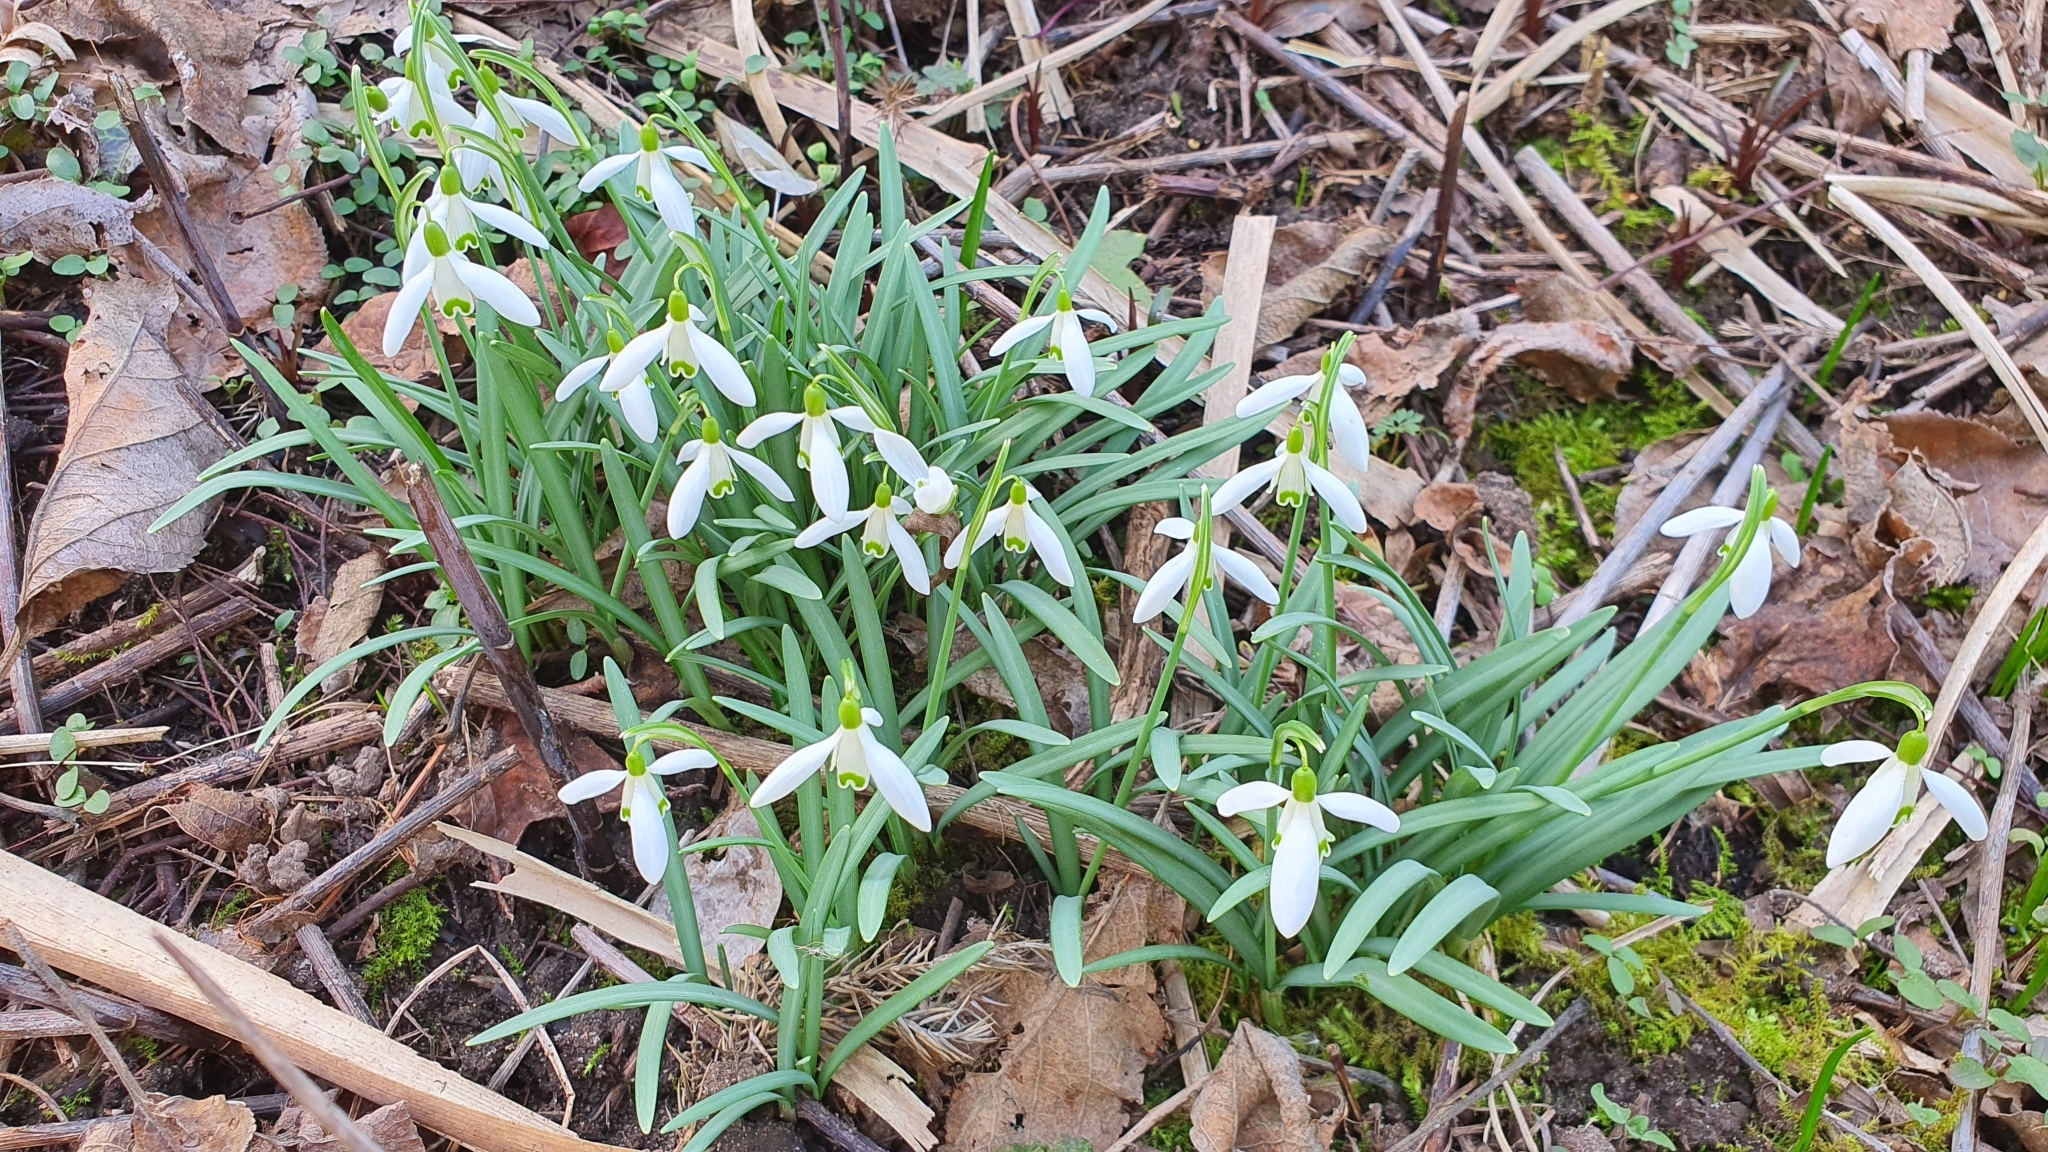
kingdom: Plantae
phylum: Tracheophyta
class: Liliopsida
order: Asparagales
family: Amaryllidaceae
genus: Galanthus
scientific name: Galanthus nivalis
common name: Snowdrop
